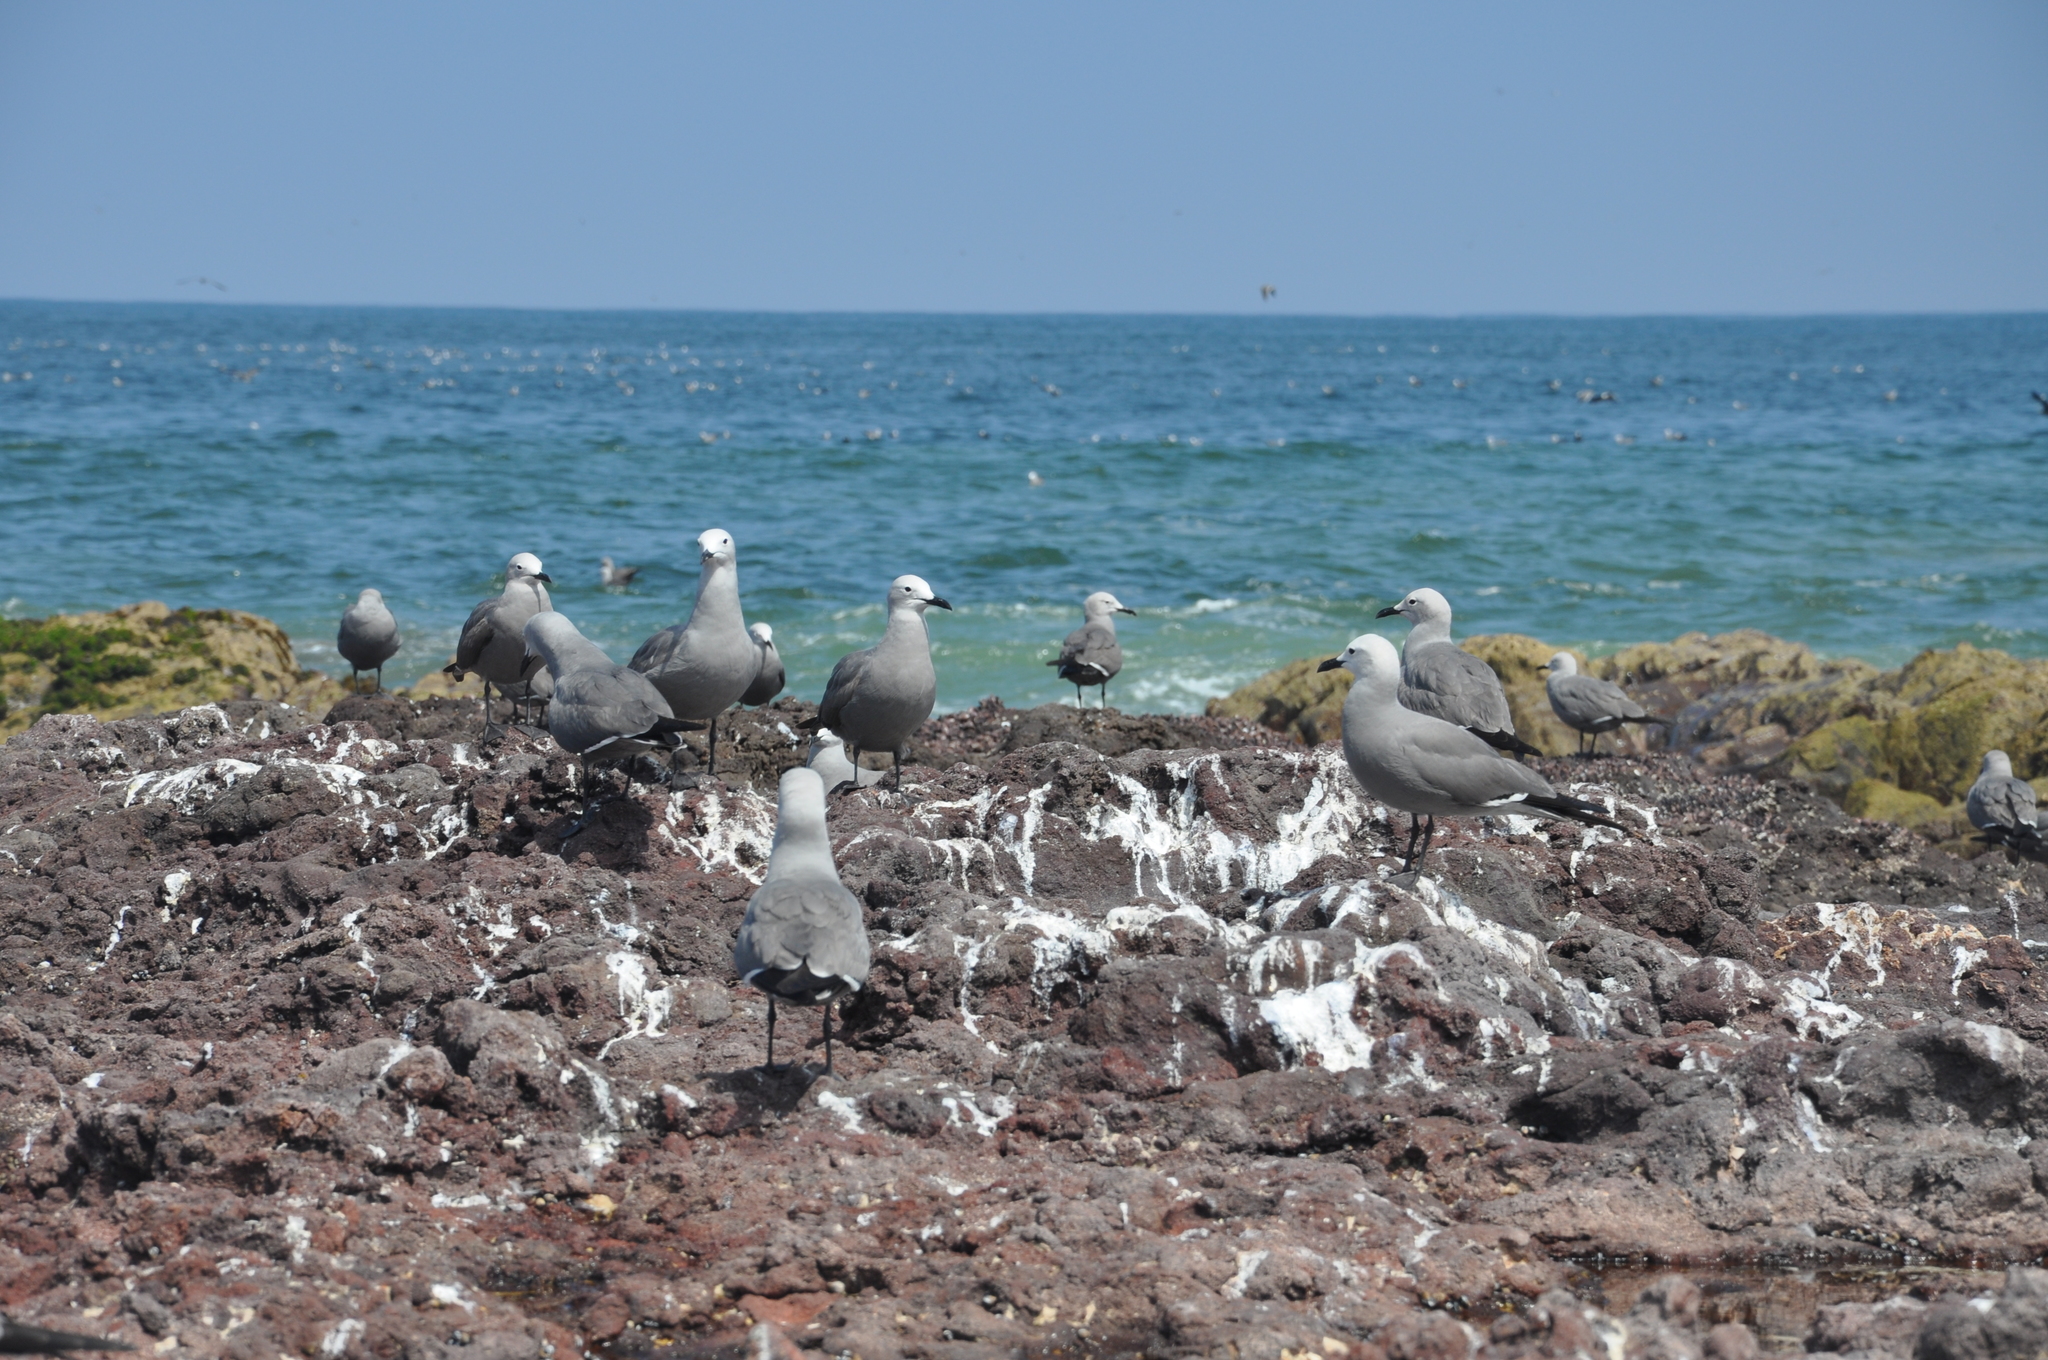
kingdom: Animalia
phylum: Chordata
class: Aves
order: Charadriiformes
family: Laridae
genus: Leucophaeus
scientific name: Leucophaeus modestus
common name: Gray gull
